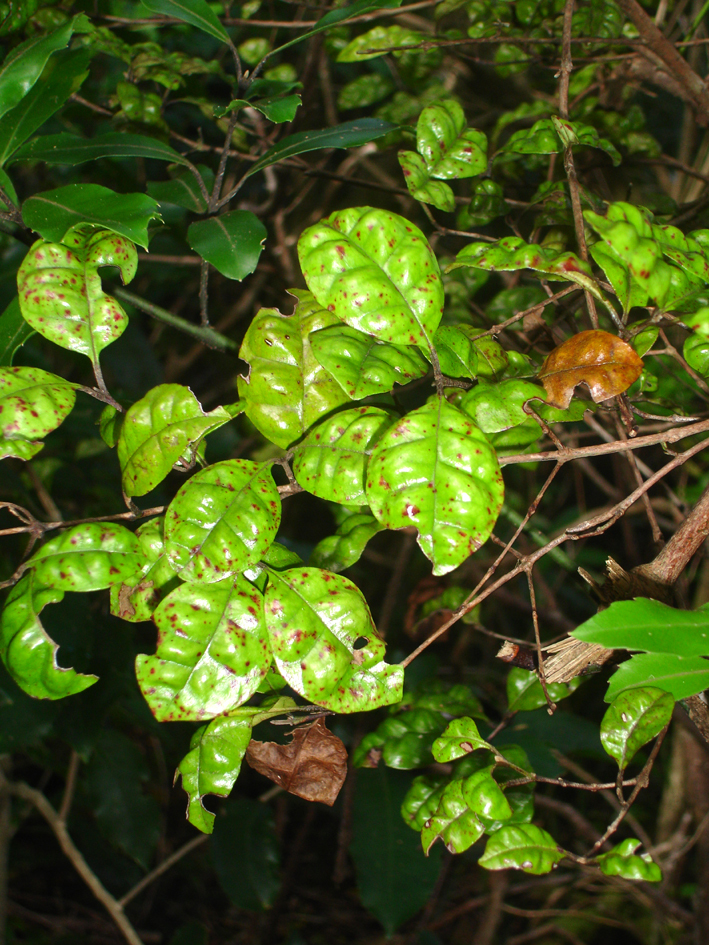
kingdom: Plantae
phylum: Tracheophyta
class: Magnoliopsida
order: Myrtales
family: Myrtaceae
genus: Lophomyrtus
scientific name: Lophomyrtus bullata
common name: Rama rama
